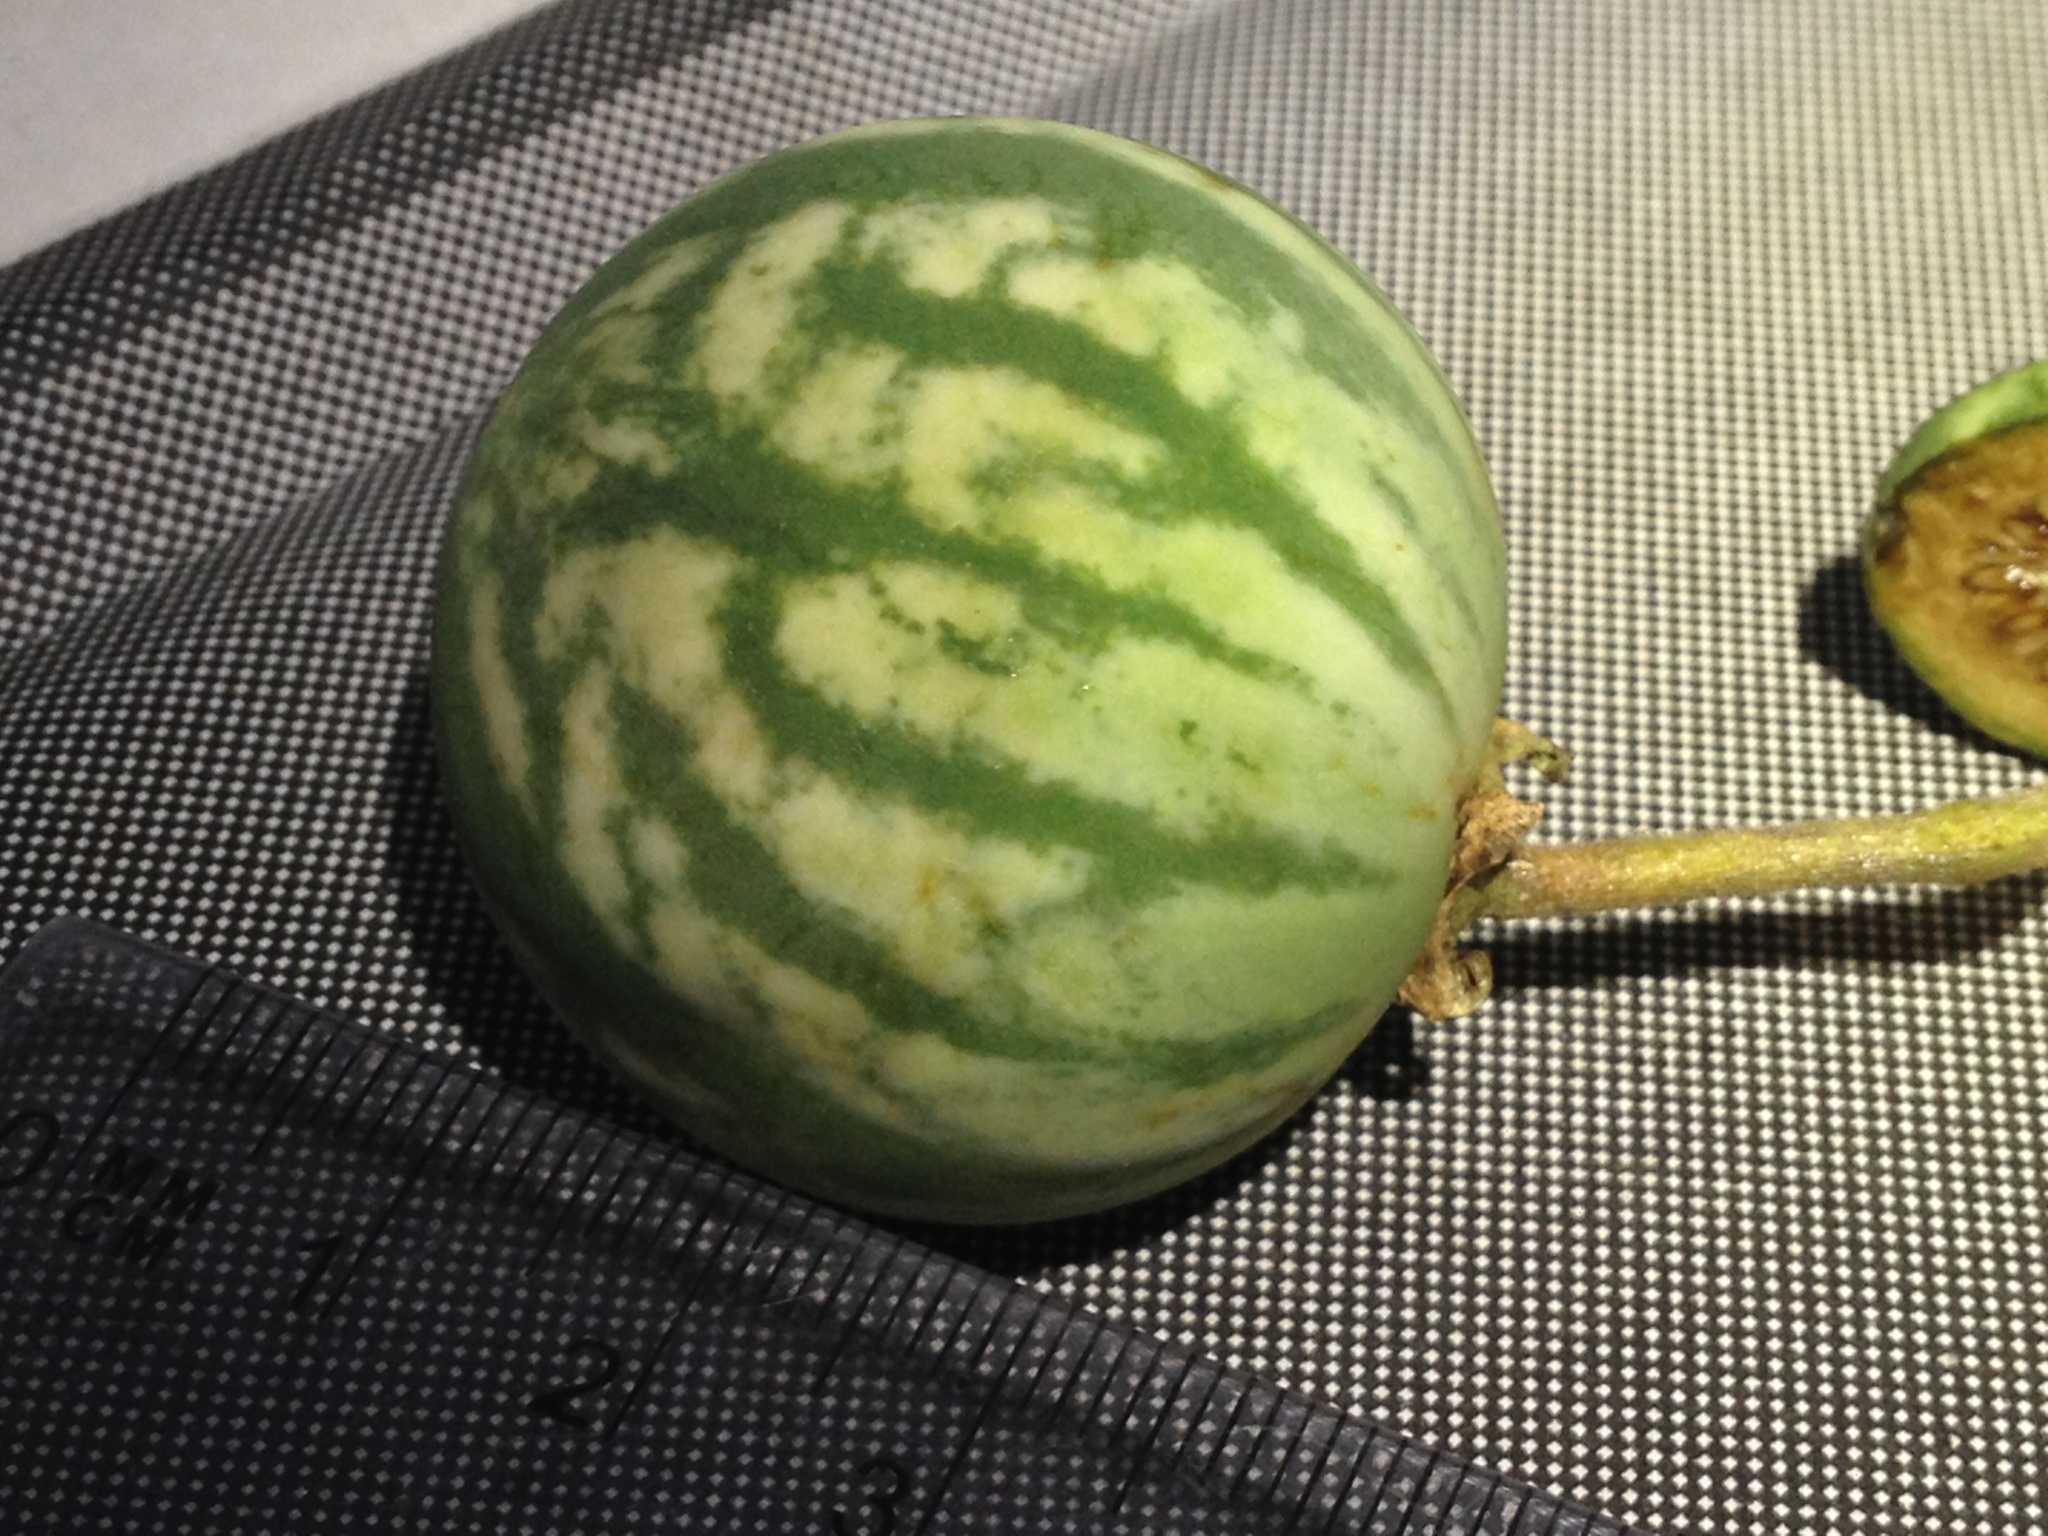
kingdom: Plantae
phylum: Tracheophyta
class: Magnoliopsida
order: Solanales
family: Solanaceae
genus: Solanum
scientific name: Solanum palinacanthum
